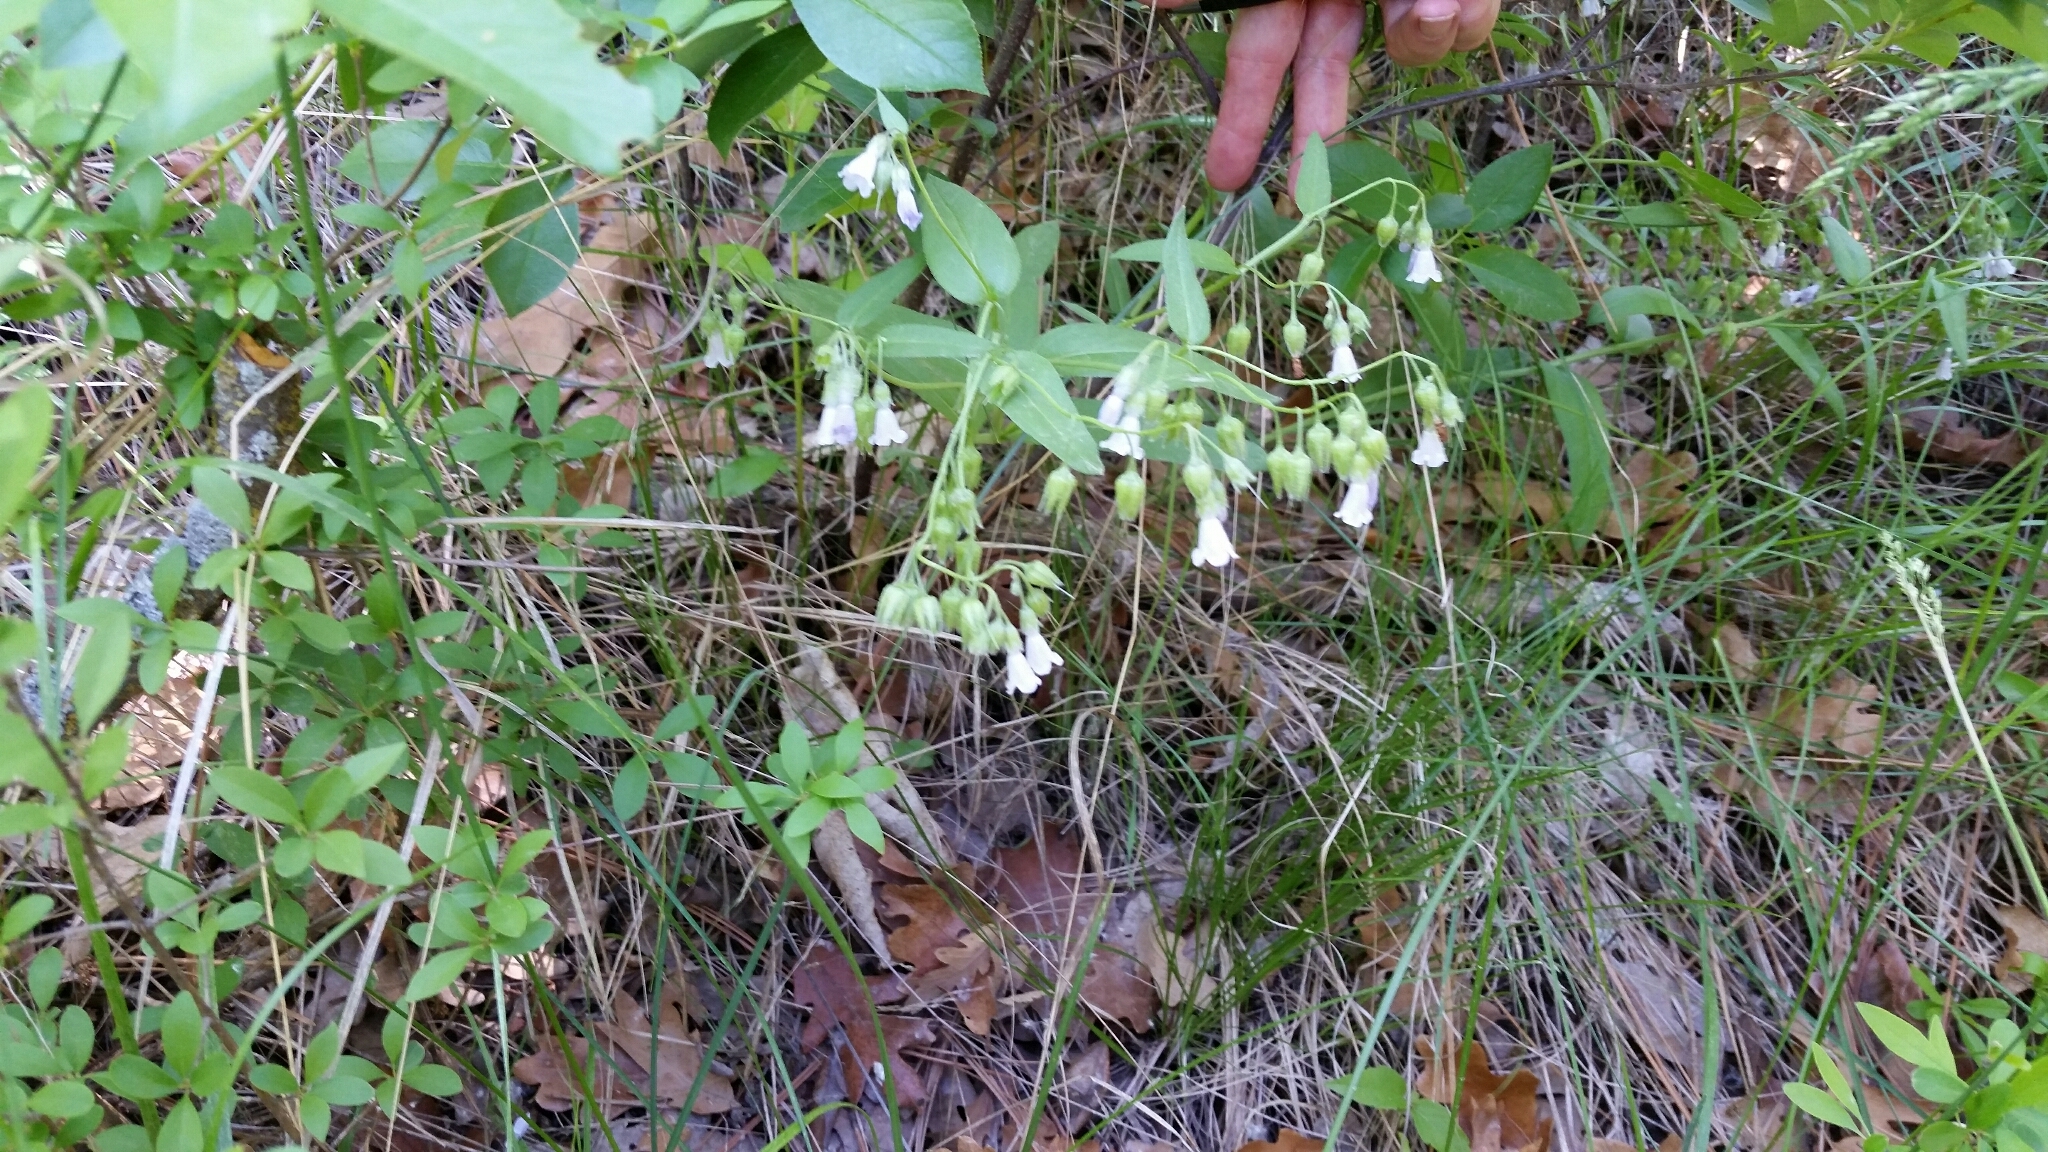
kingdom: Plantae
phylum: Tracheophyta
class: Magnoliopsida
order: Boraginales
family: Boraginaceae
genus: Mertensia
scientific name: Mertensia fendleri
